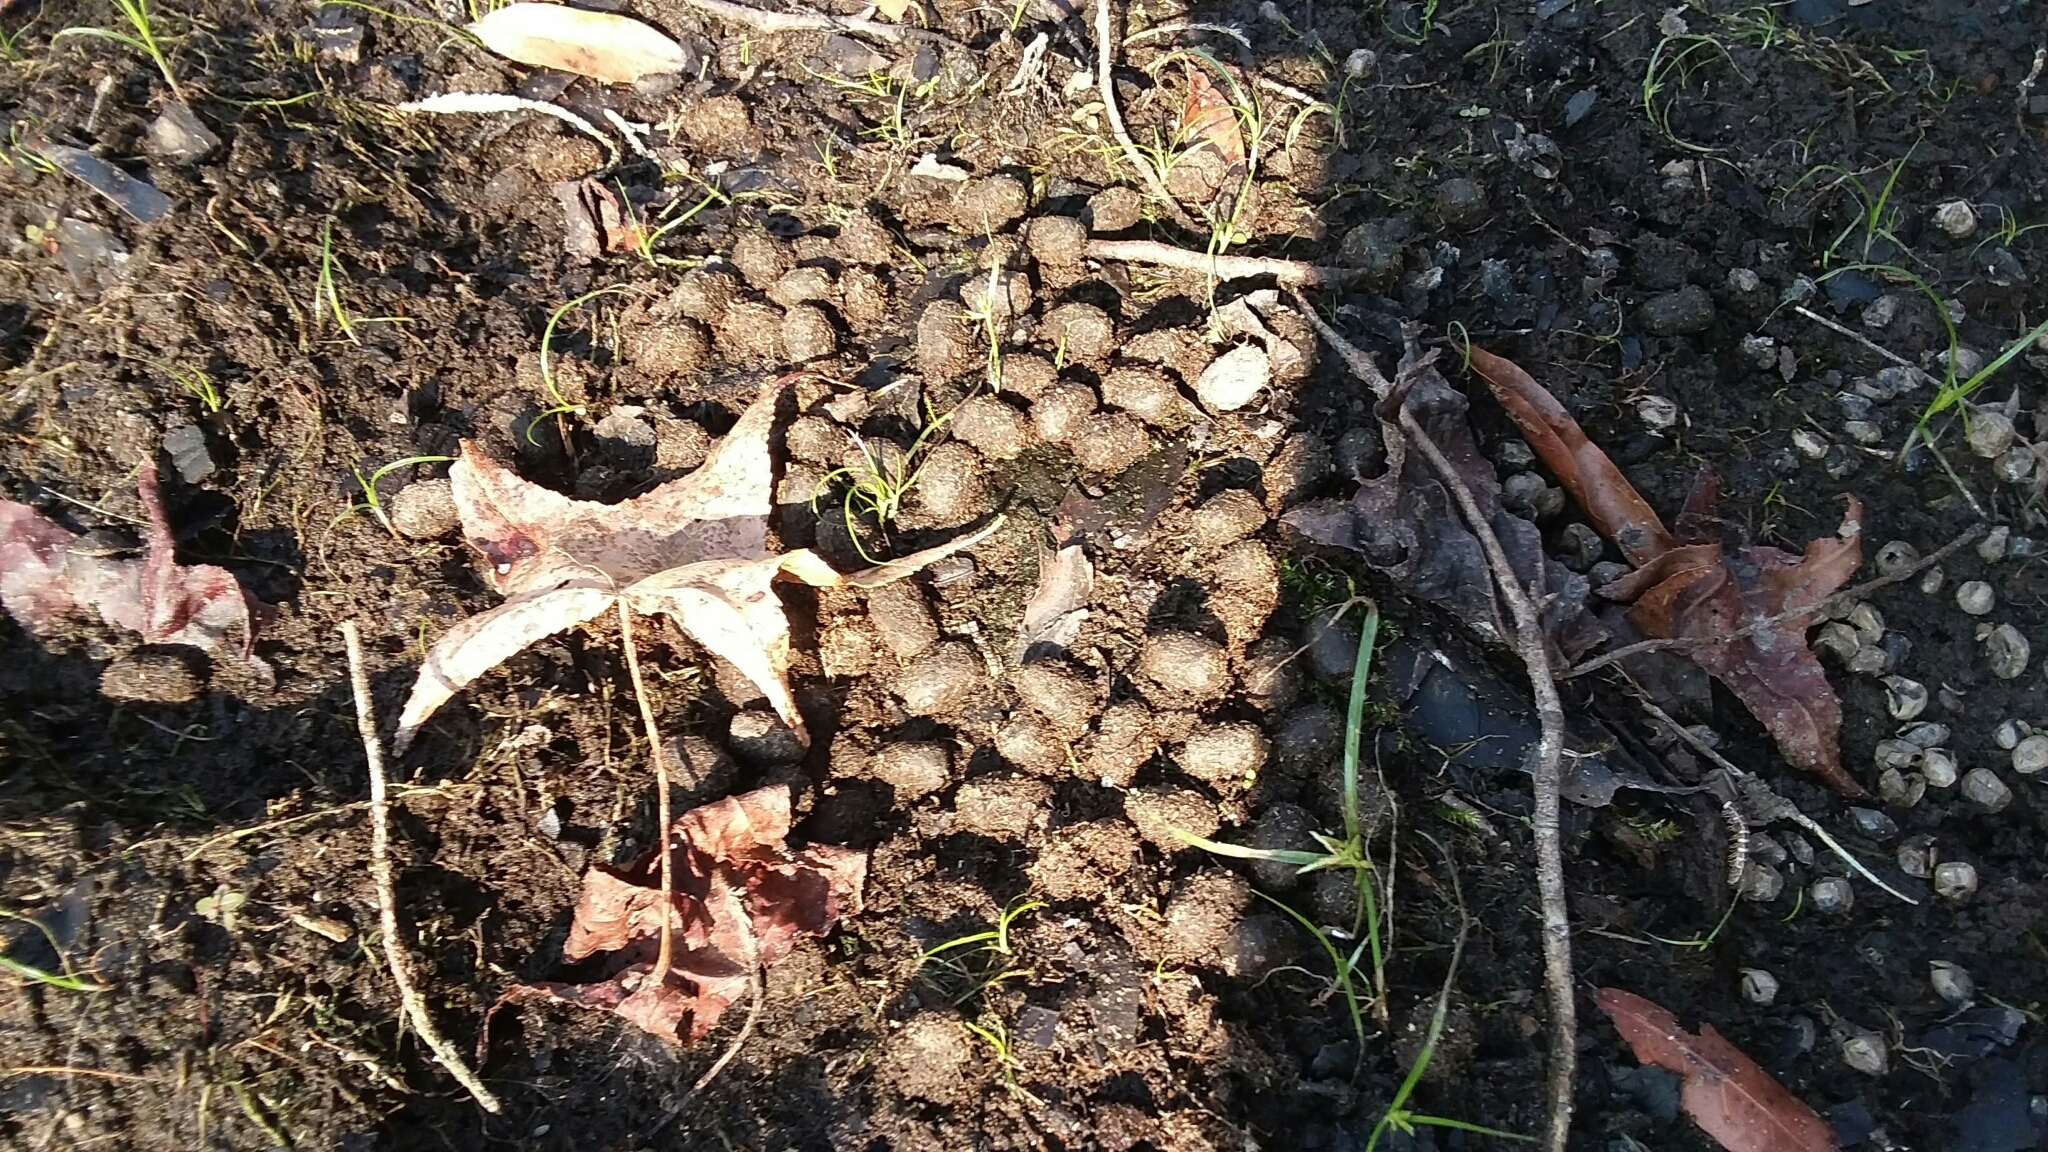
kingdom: Animalia
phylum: Chordata
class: Mammalia
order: Artiodactyla
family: Cervidae
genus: Odocoileus
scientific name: Odocoileus virginianus
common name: White-tailed deer
